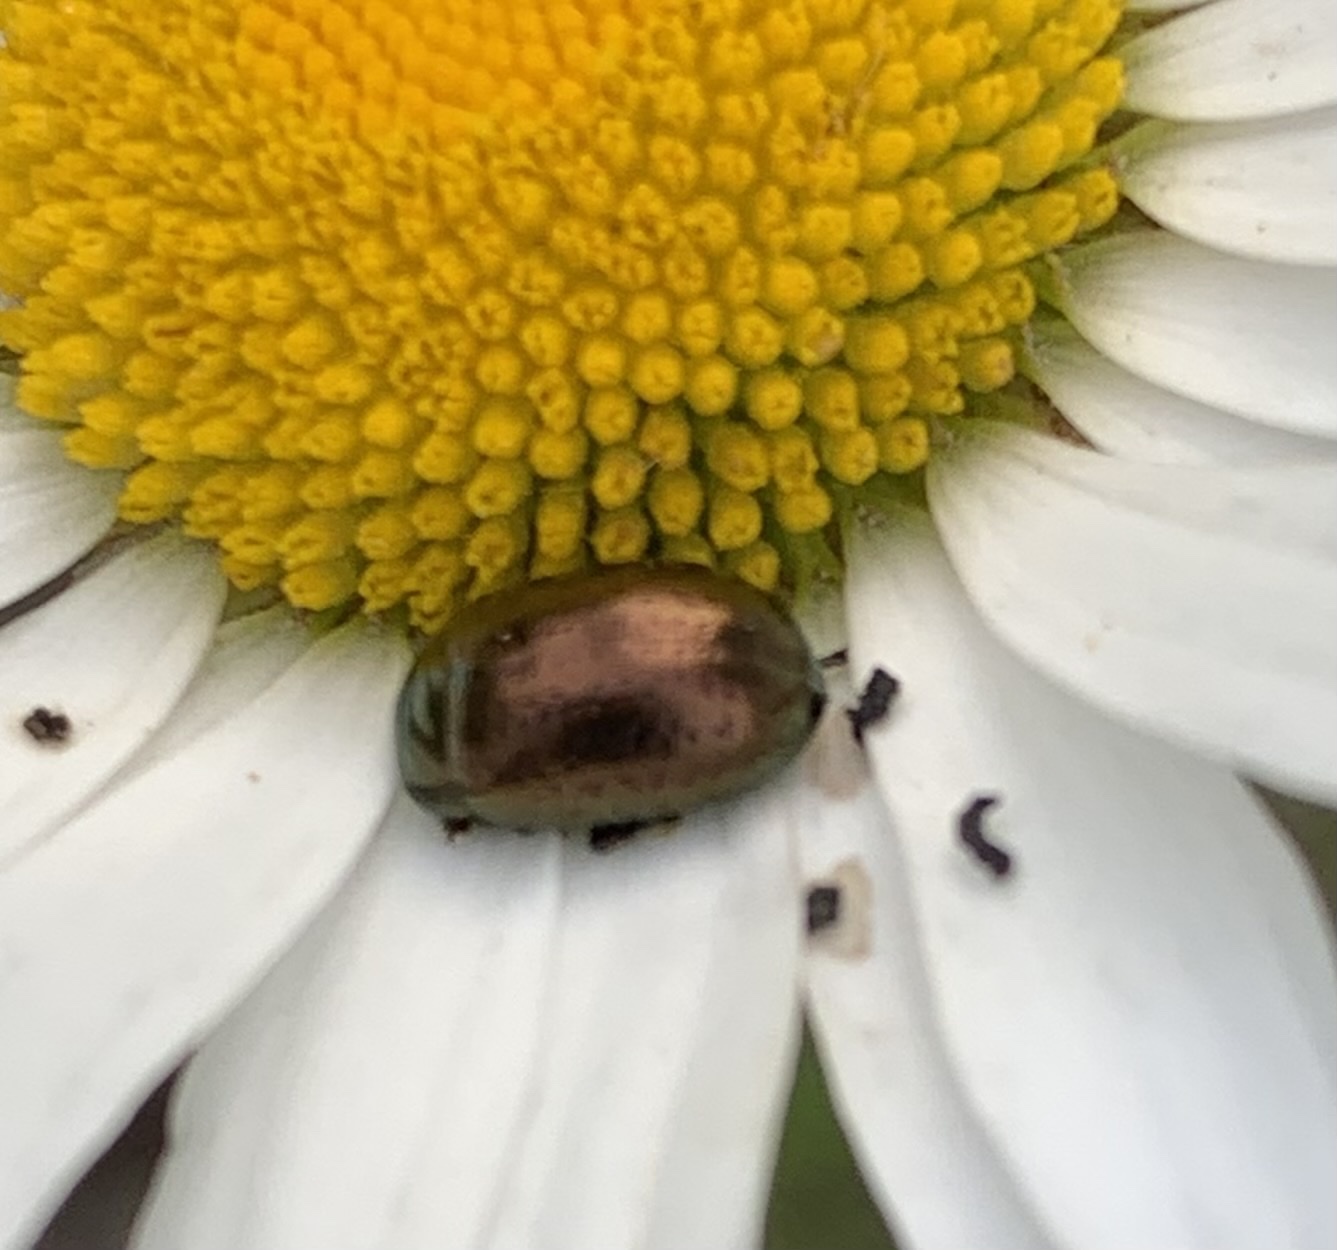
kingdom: Animalia
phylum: Arthropoda
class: Insecta
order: Coleoptera
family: Chrysomelidae
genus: Chrysolina
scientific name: Chrysolina hyperici
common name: St. johnswort beetle
